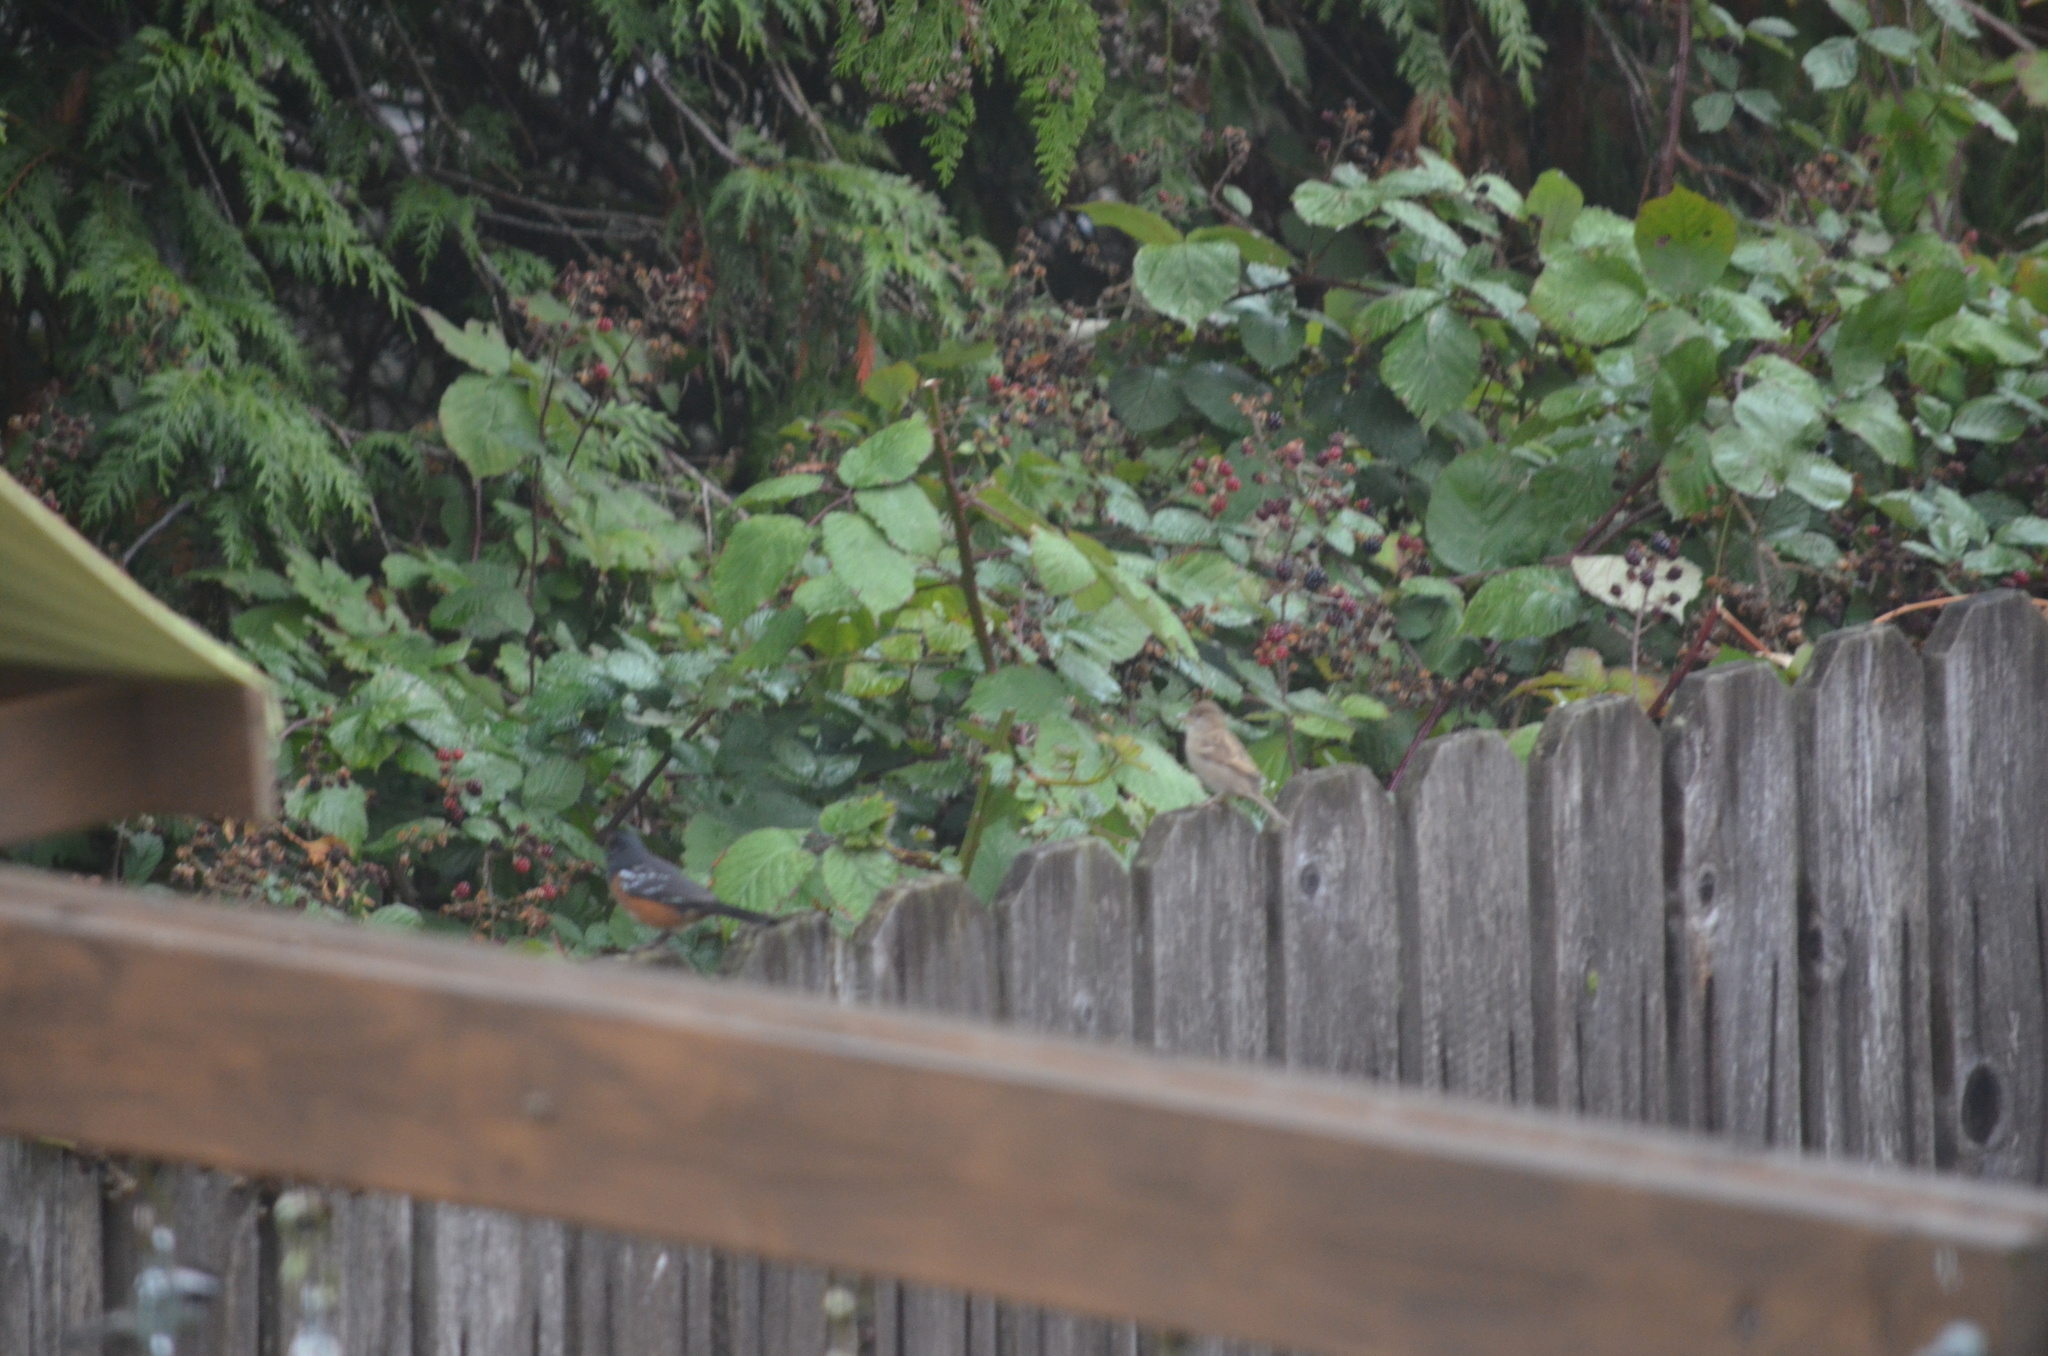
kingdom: Animalia
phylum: Chordata
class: Aves
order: Passeriformes
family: Passerellidae
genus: Pipilo
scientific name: Pipilo maculatus
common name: Spotted towhee
